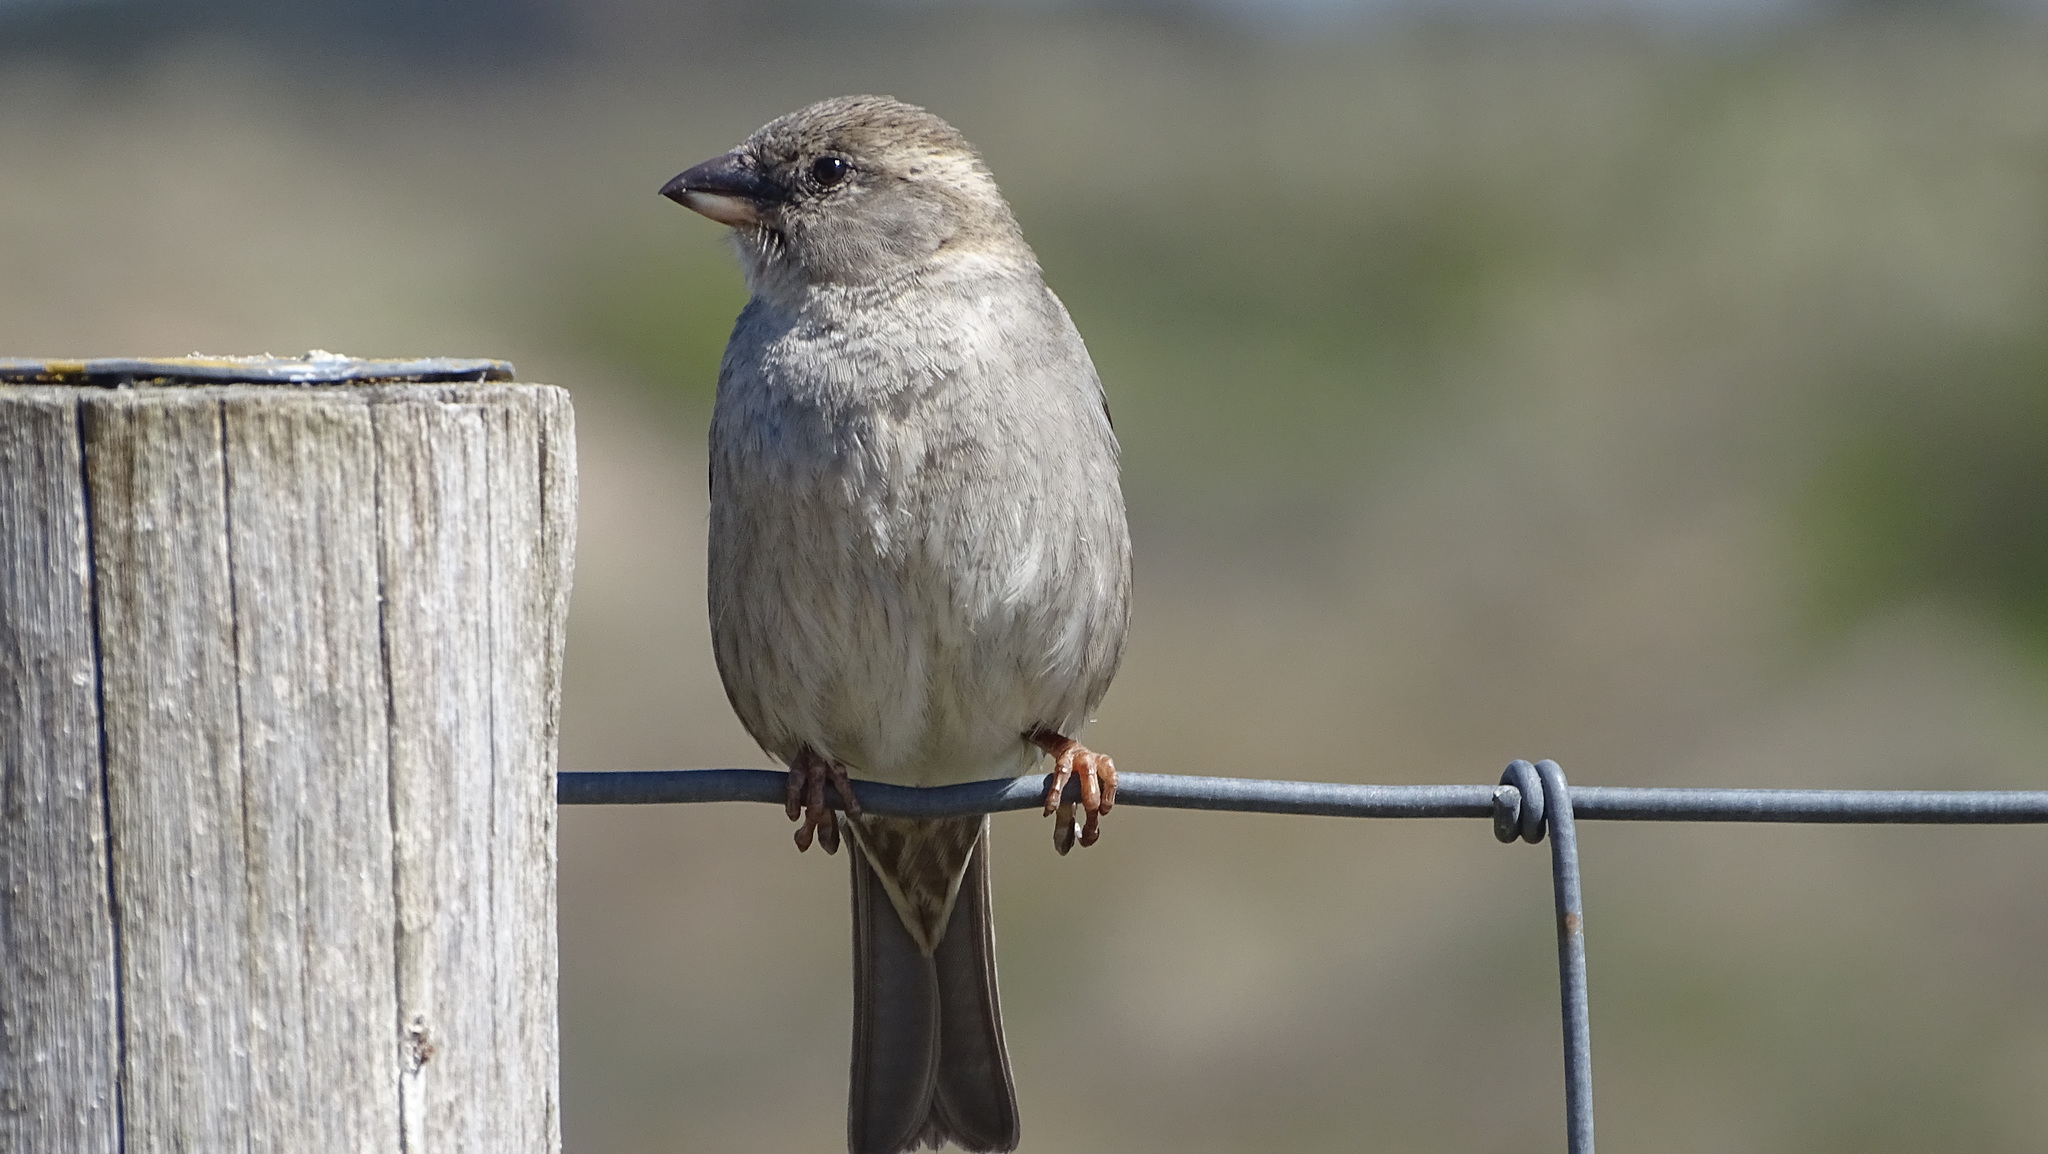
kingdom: Animalia
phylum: Chordata
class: Aves
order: Passeriformes
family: Passeridae
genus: Passer
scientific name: Passer domesticus
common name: House sparrow
